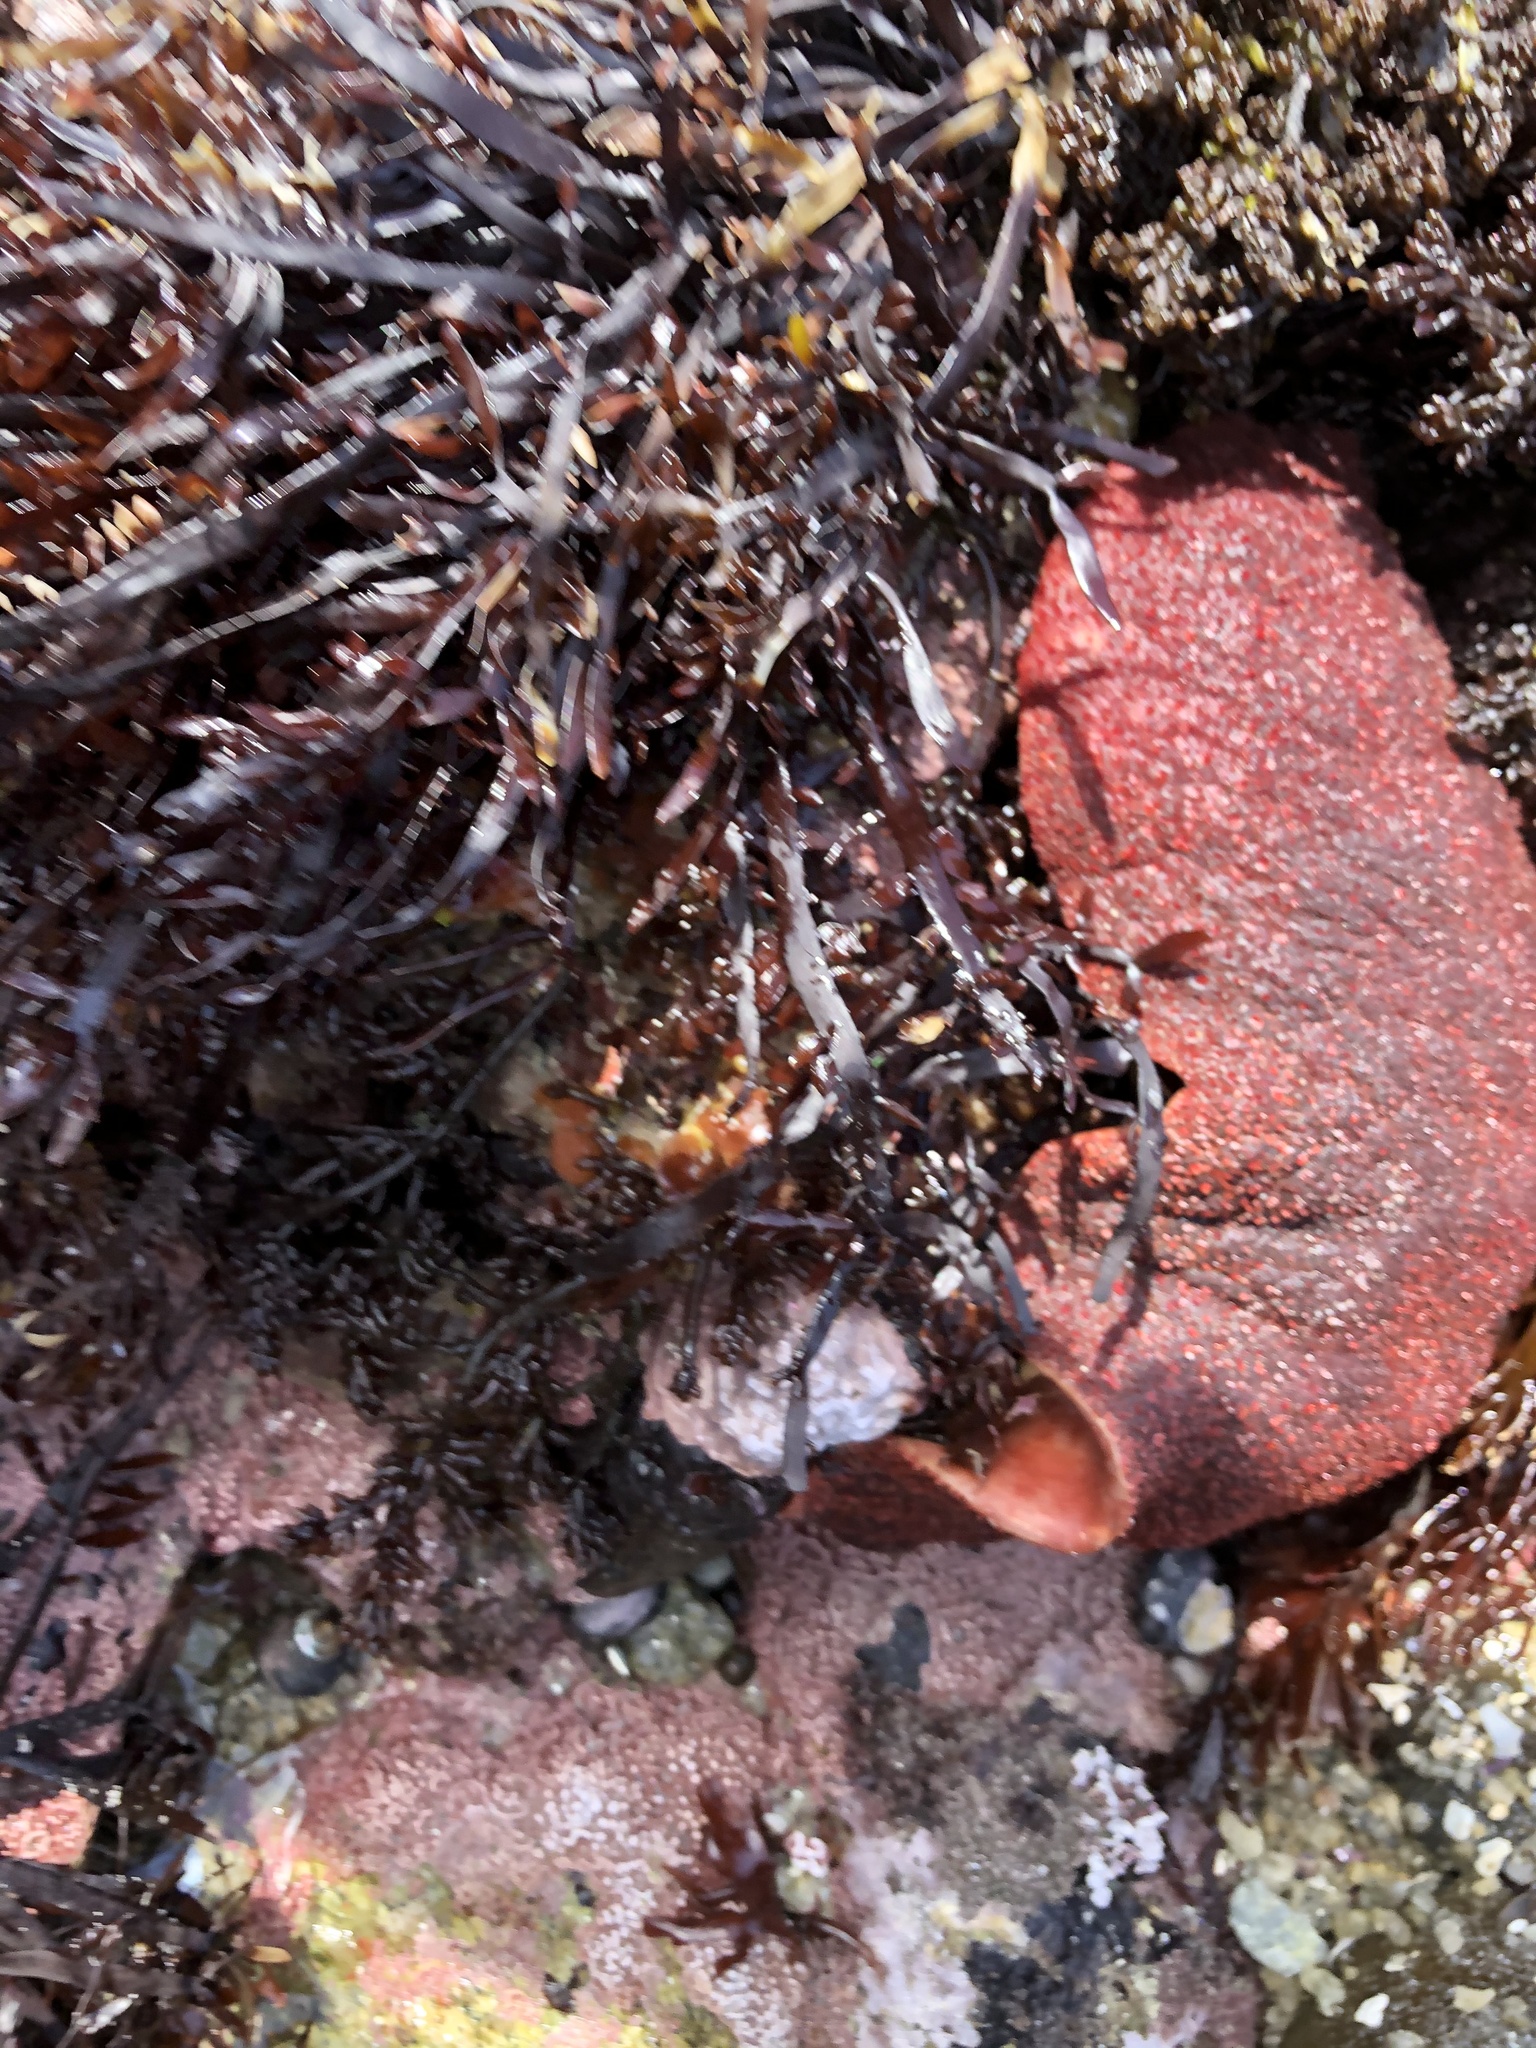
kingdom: Animalia
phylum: Mollusca
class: Polyplacophora
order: Chitonida
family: Acanthochitonidae
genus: Cryptochiton
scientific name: Cryptochiton stelleri
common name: Giant pacific chiton
